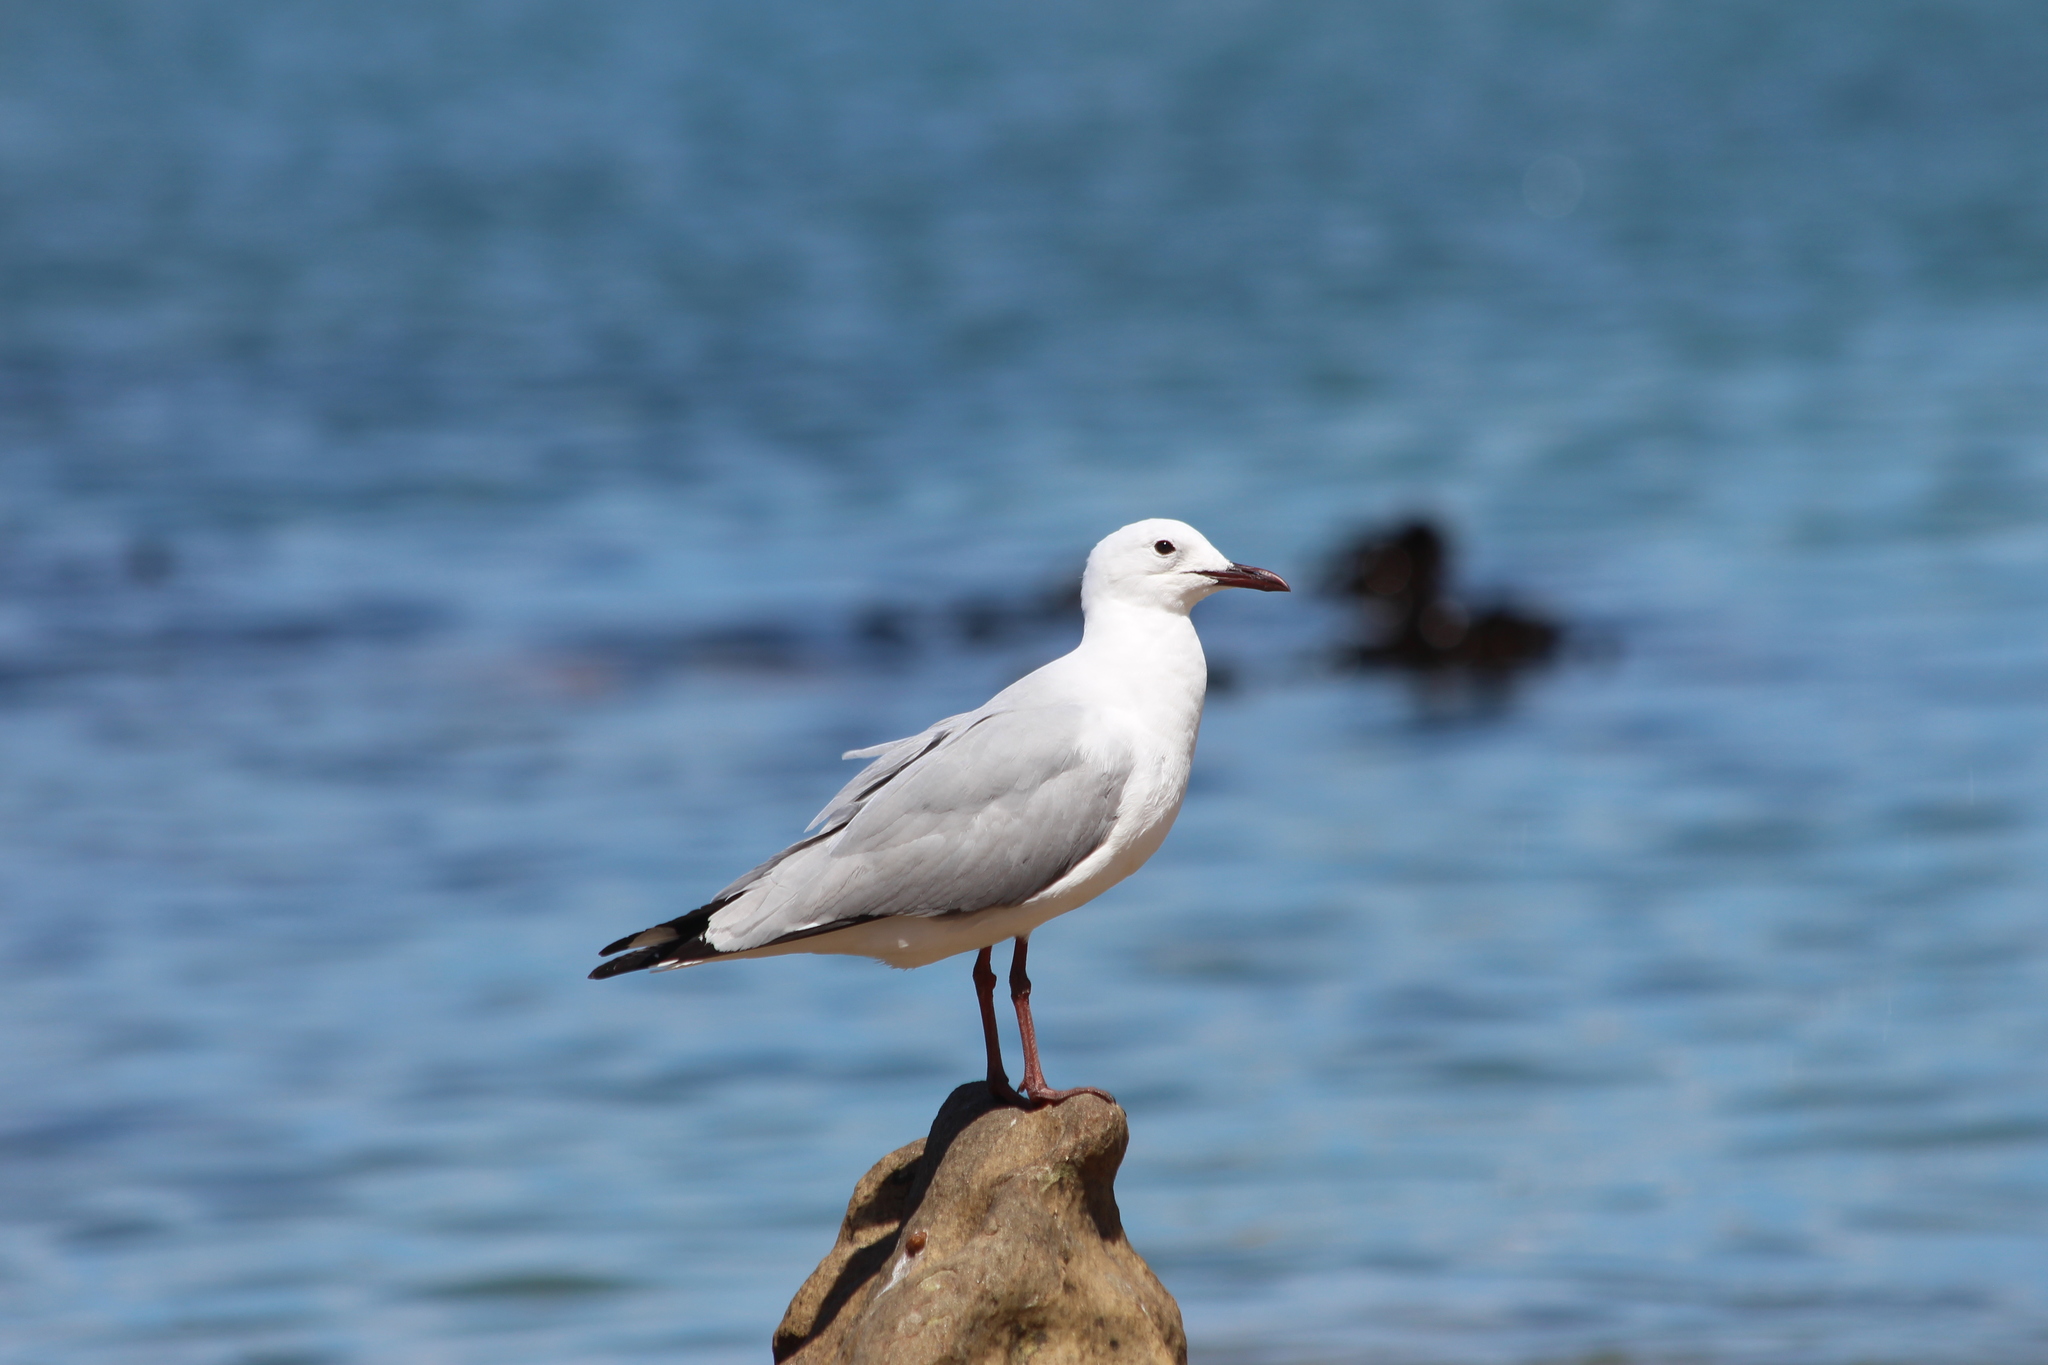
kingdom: Animalia
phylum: Chordata
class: Aves
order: Charadriiformes
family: Laridae
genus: Chroicocephalus
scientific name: Chroicocephalus hartlaubii
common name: Hartlaub's gull
